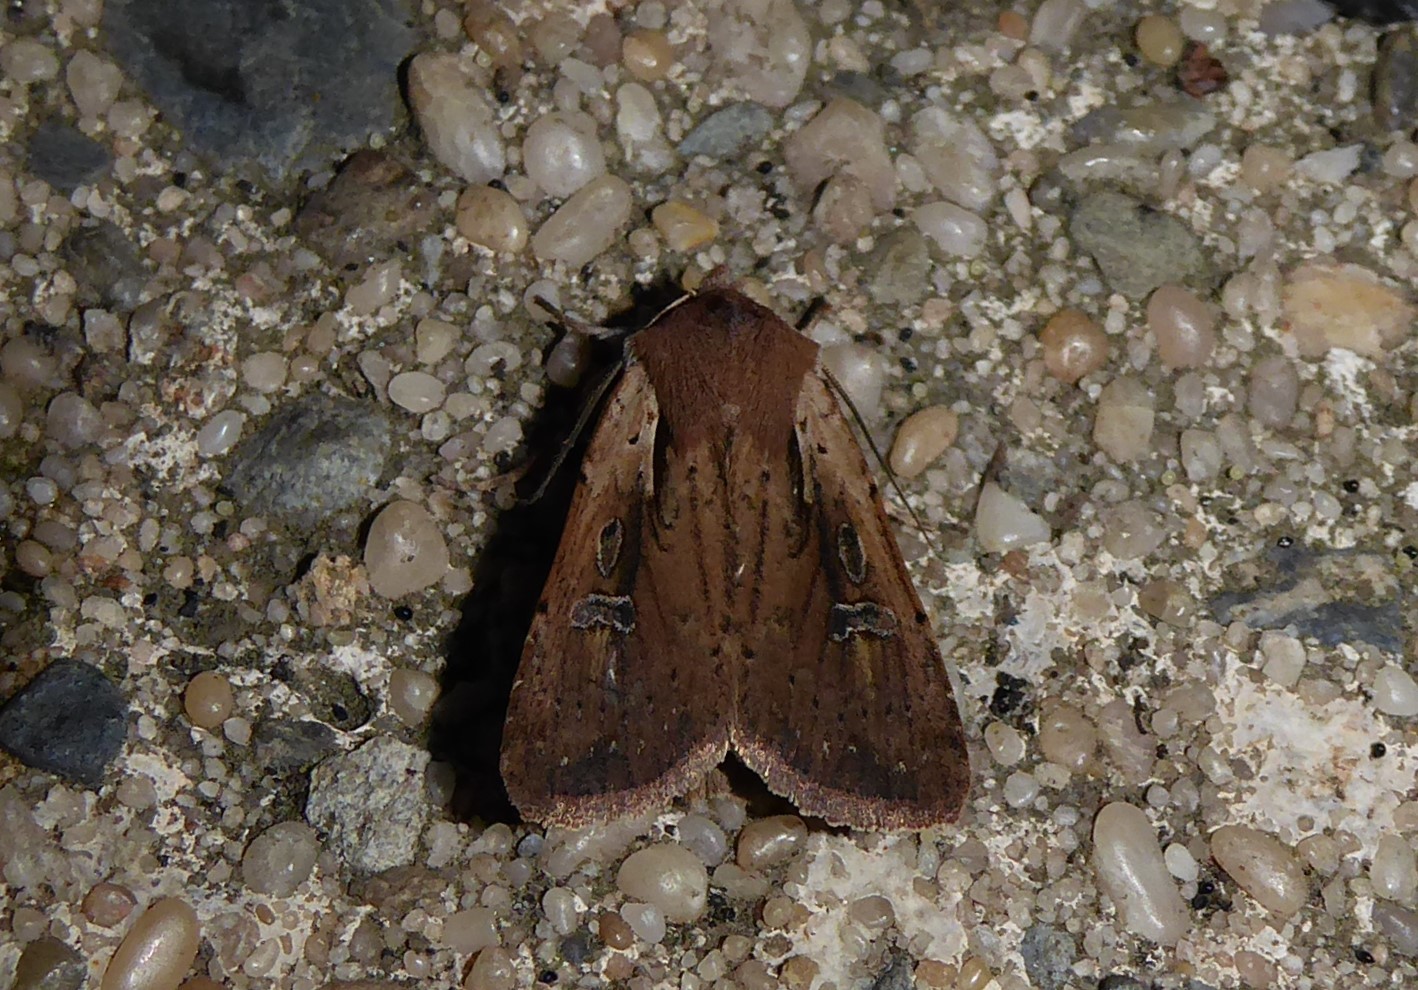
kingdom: Animalia
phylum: Arthropoda
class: Insecta
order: Lepidoptera
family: Noctuidae
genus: Ichneutica
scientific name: Ichneutica atristriga
